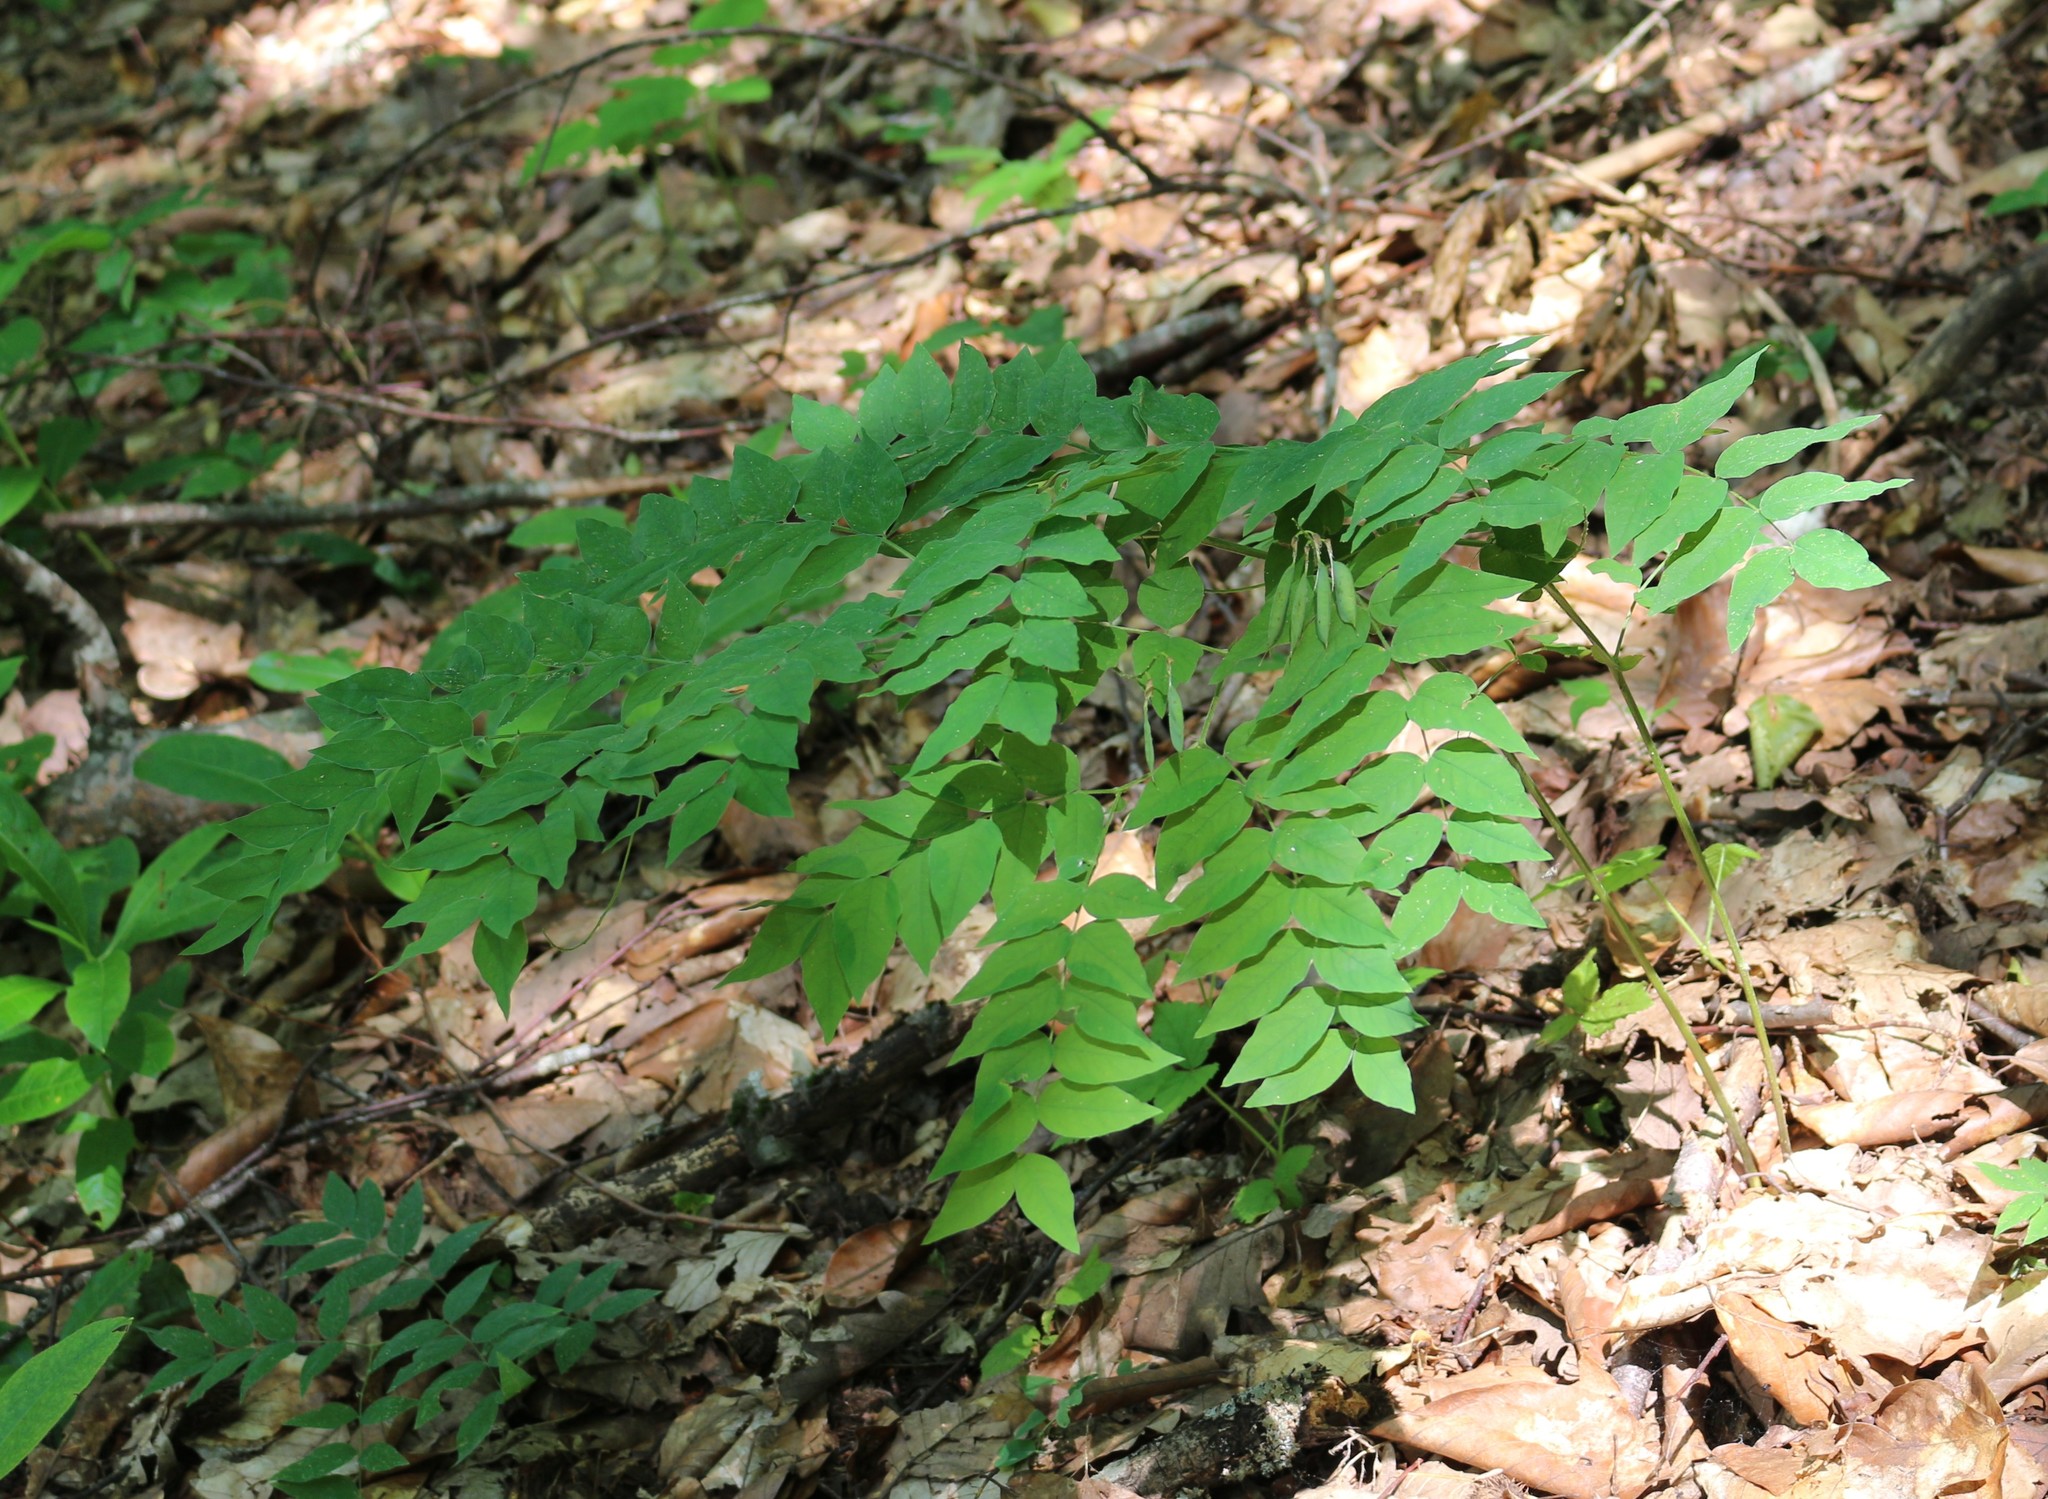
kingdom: Plantae
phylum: Tracheophyta
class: Magnoliopsida
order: Fabales
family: Fabaceae
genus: Vicia
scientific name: Vicia crocea
